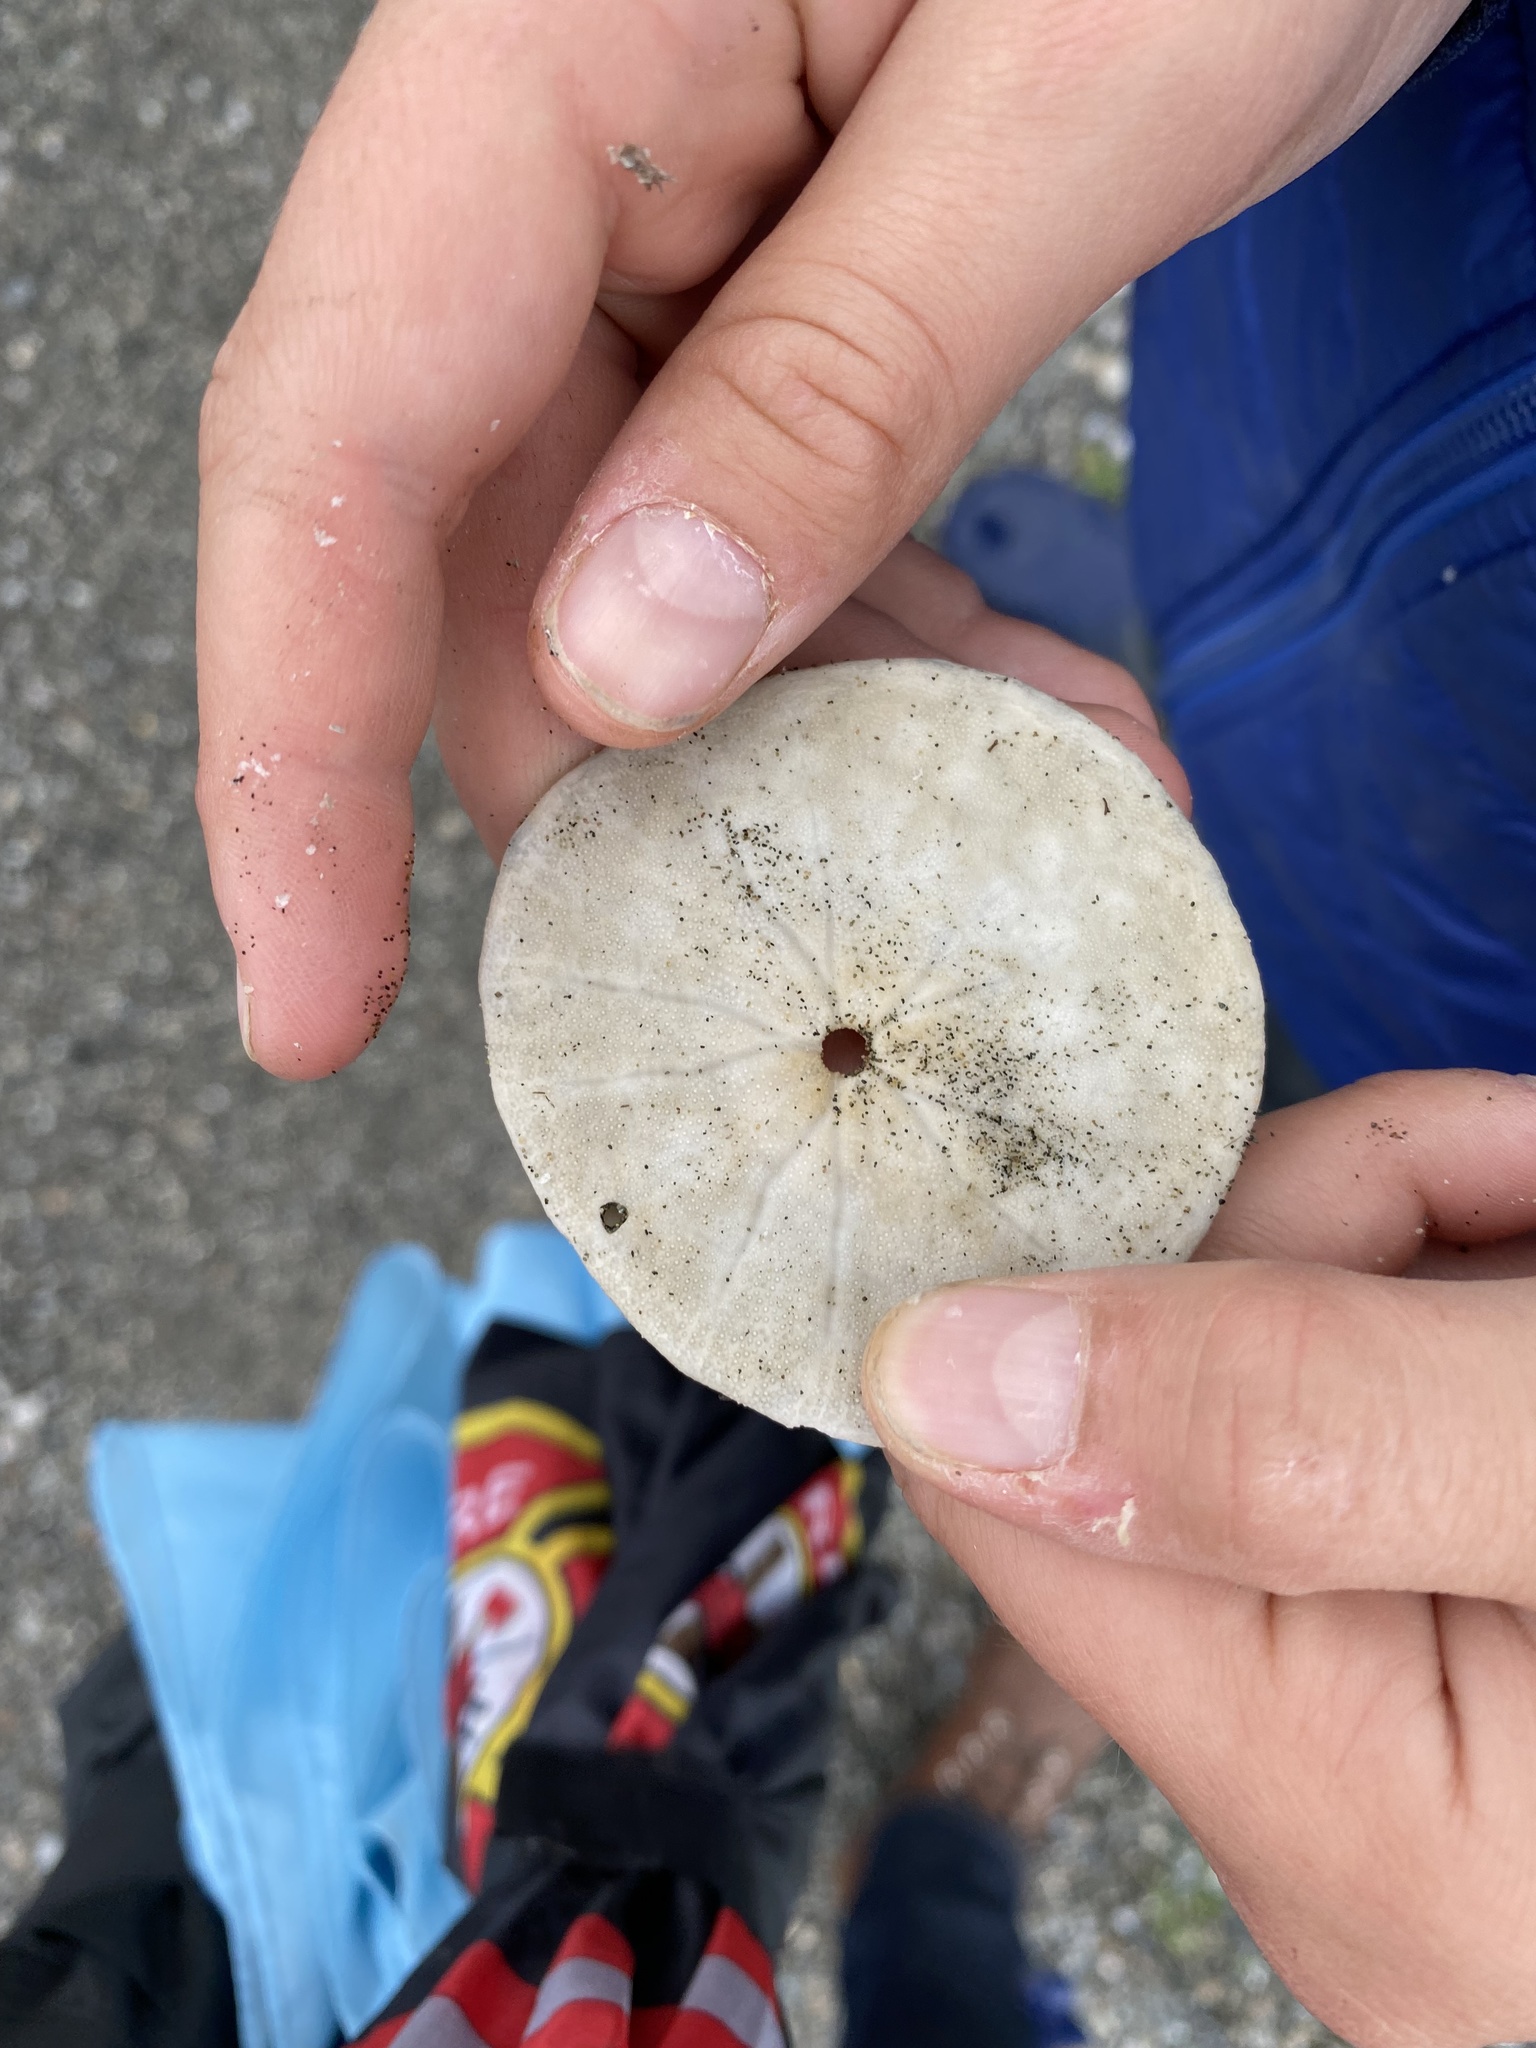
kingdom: Animalia
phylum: Echinodermata
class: Echinoidea
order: Echinolampadacea
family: Dendrasteridae
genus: Dendraster
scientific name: Dendraster excentricus
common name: Eccentric sand dollar sea urchin
